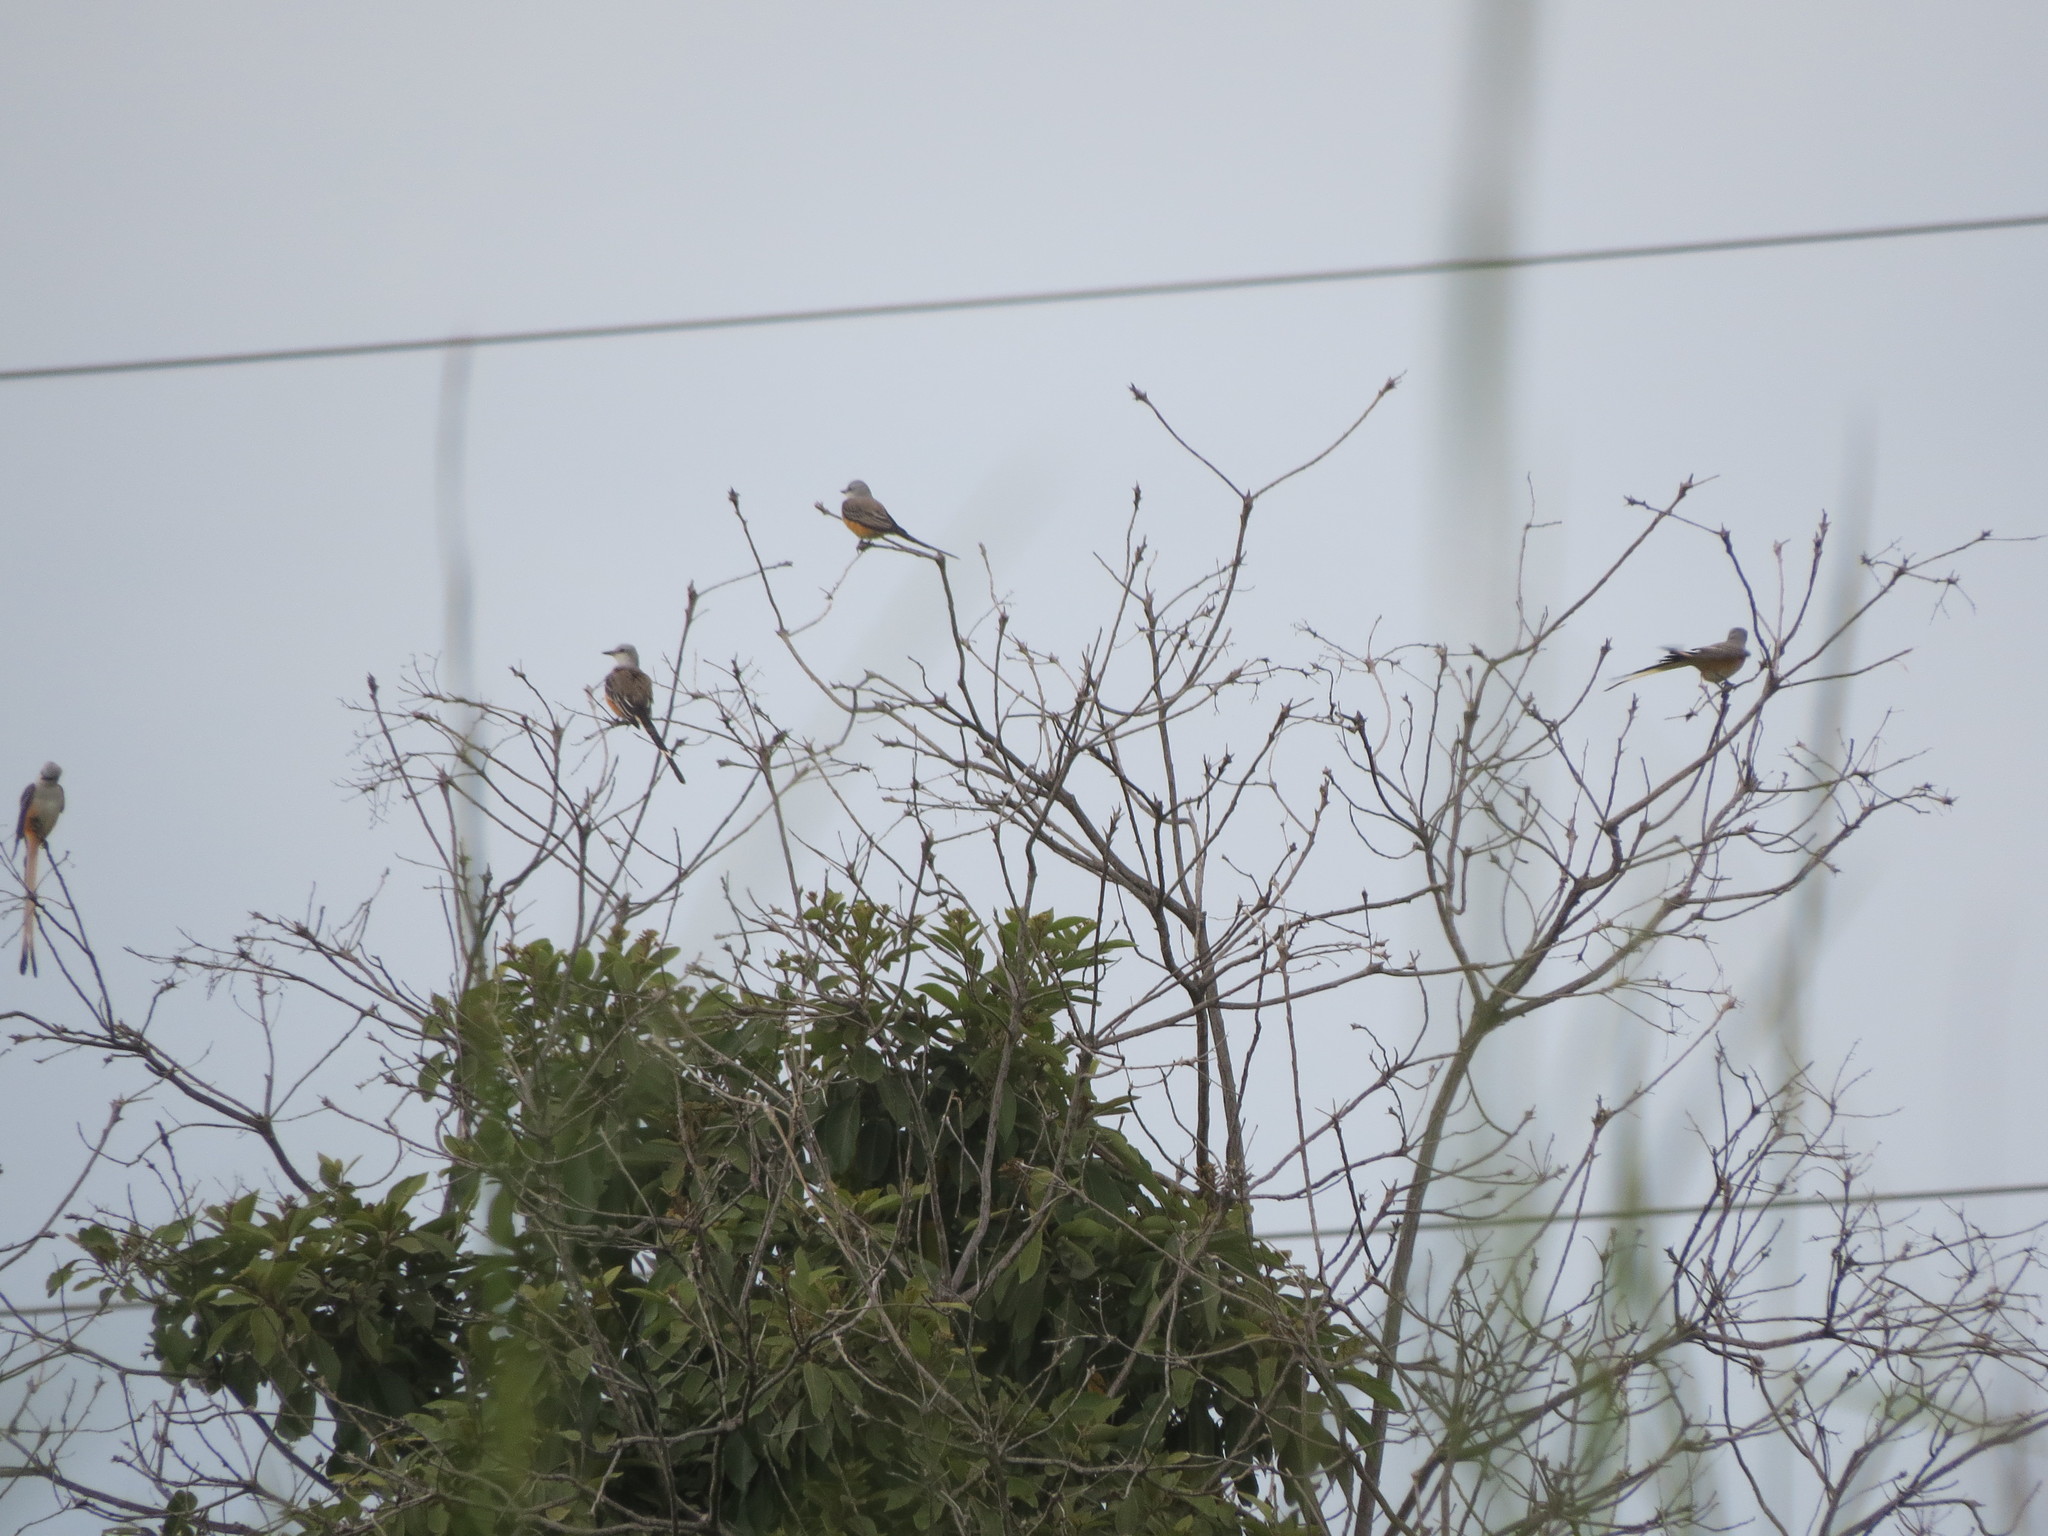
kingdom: Animalia
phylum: Chordata
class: Aves
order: Passeriformes
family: Tyrannidae
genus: Tyrannus
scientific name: Tyrannus forficatus
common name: Scissor-tailed flycatcher
